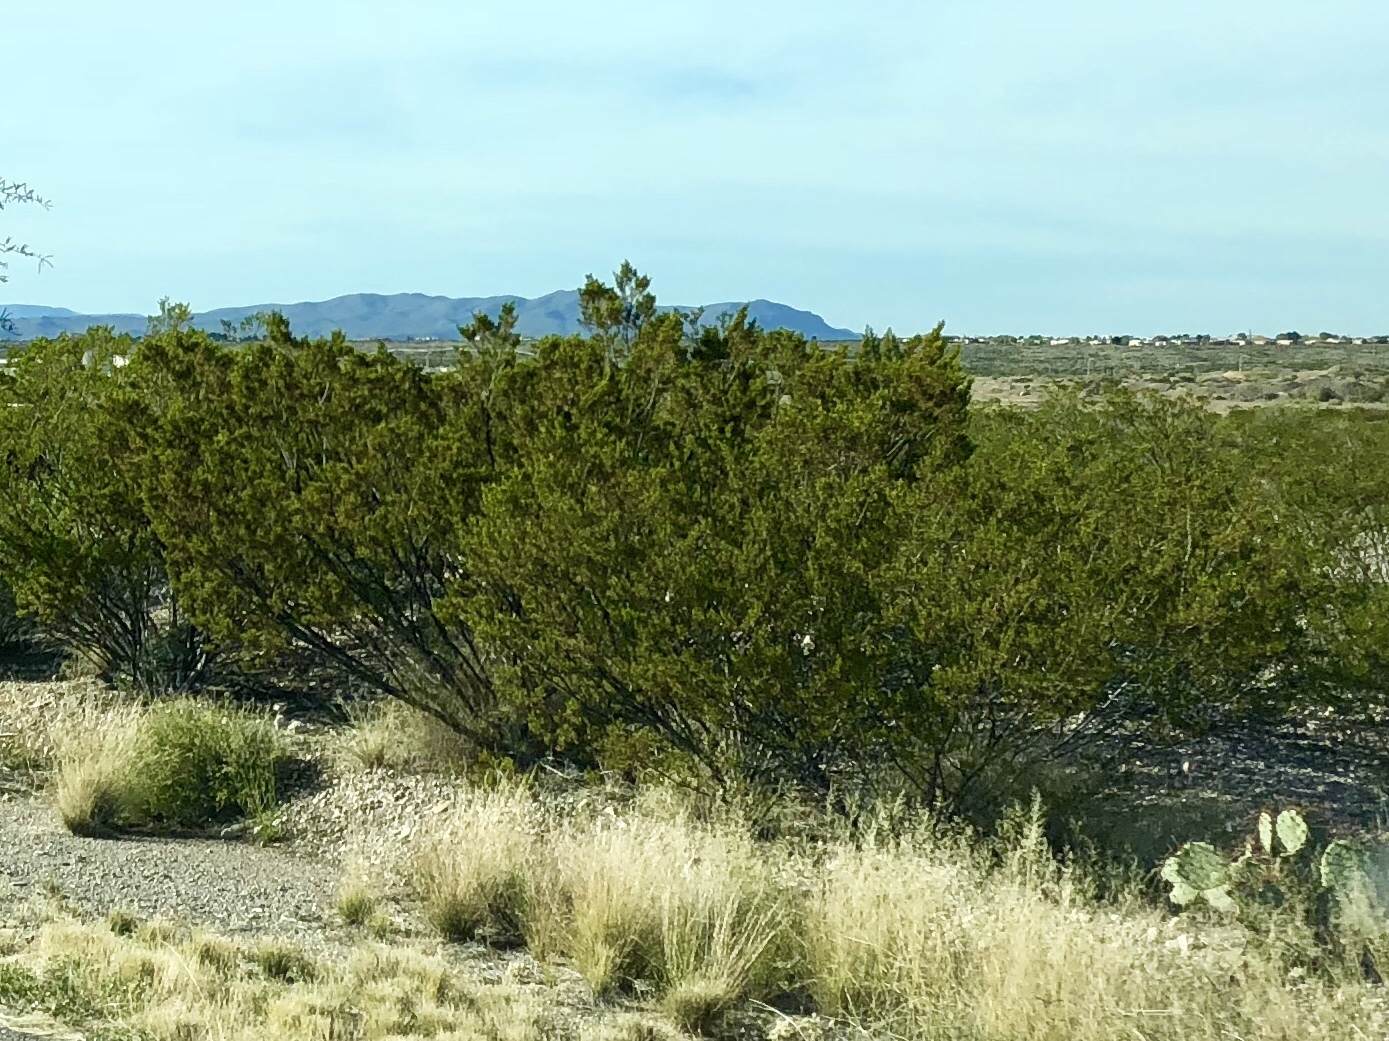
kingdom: Plantae
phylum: Tracheophyta
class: Magnoliopsida
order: Zygophyllales
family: Zygophyllaceae
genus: Larrea
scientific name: Larrea tridentata
